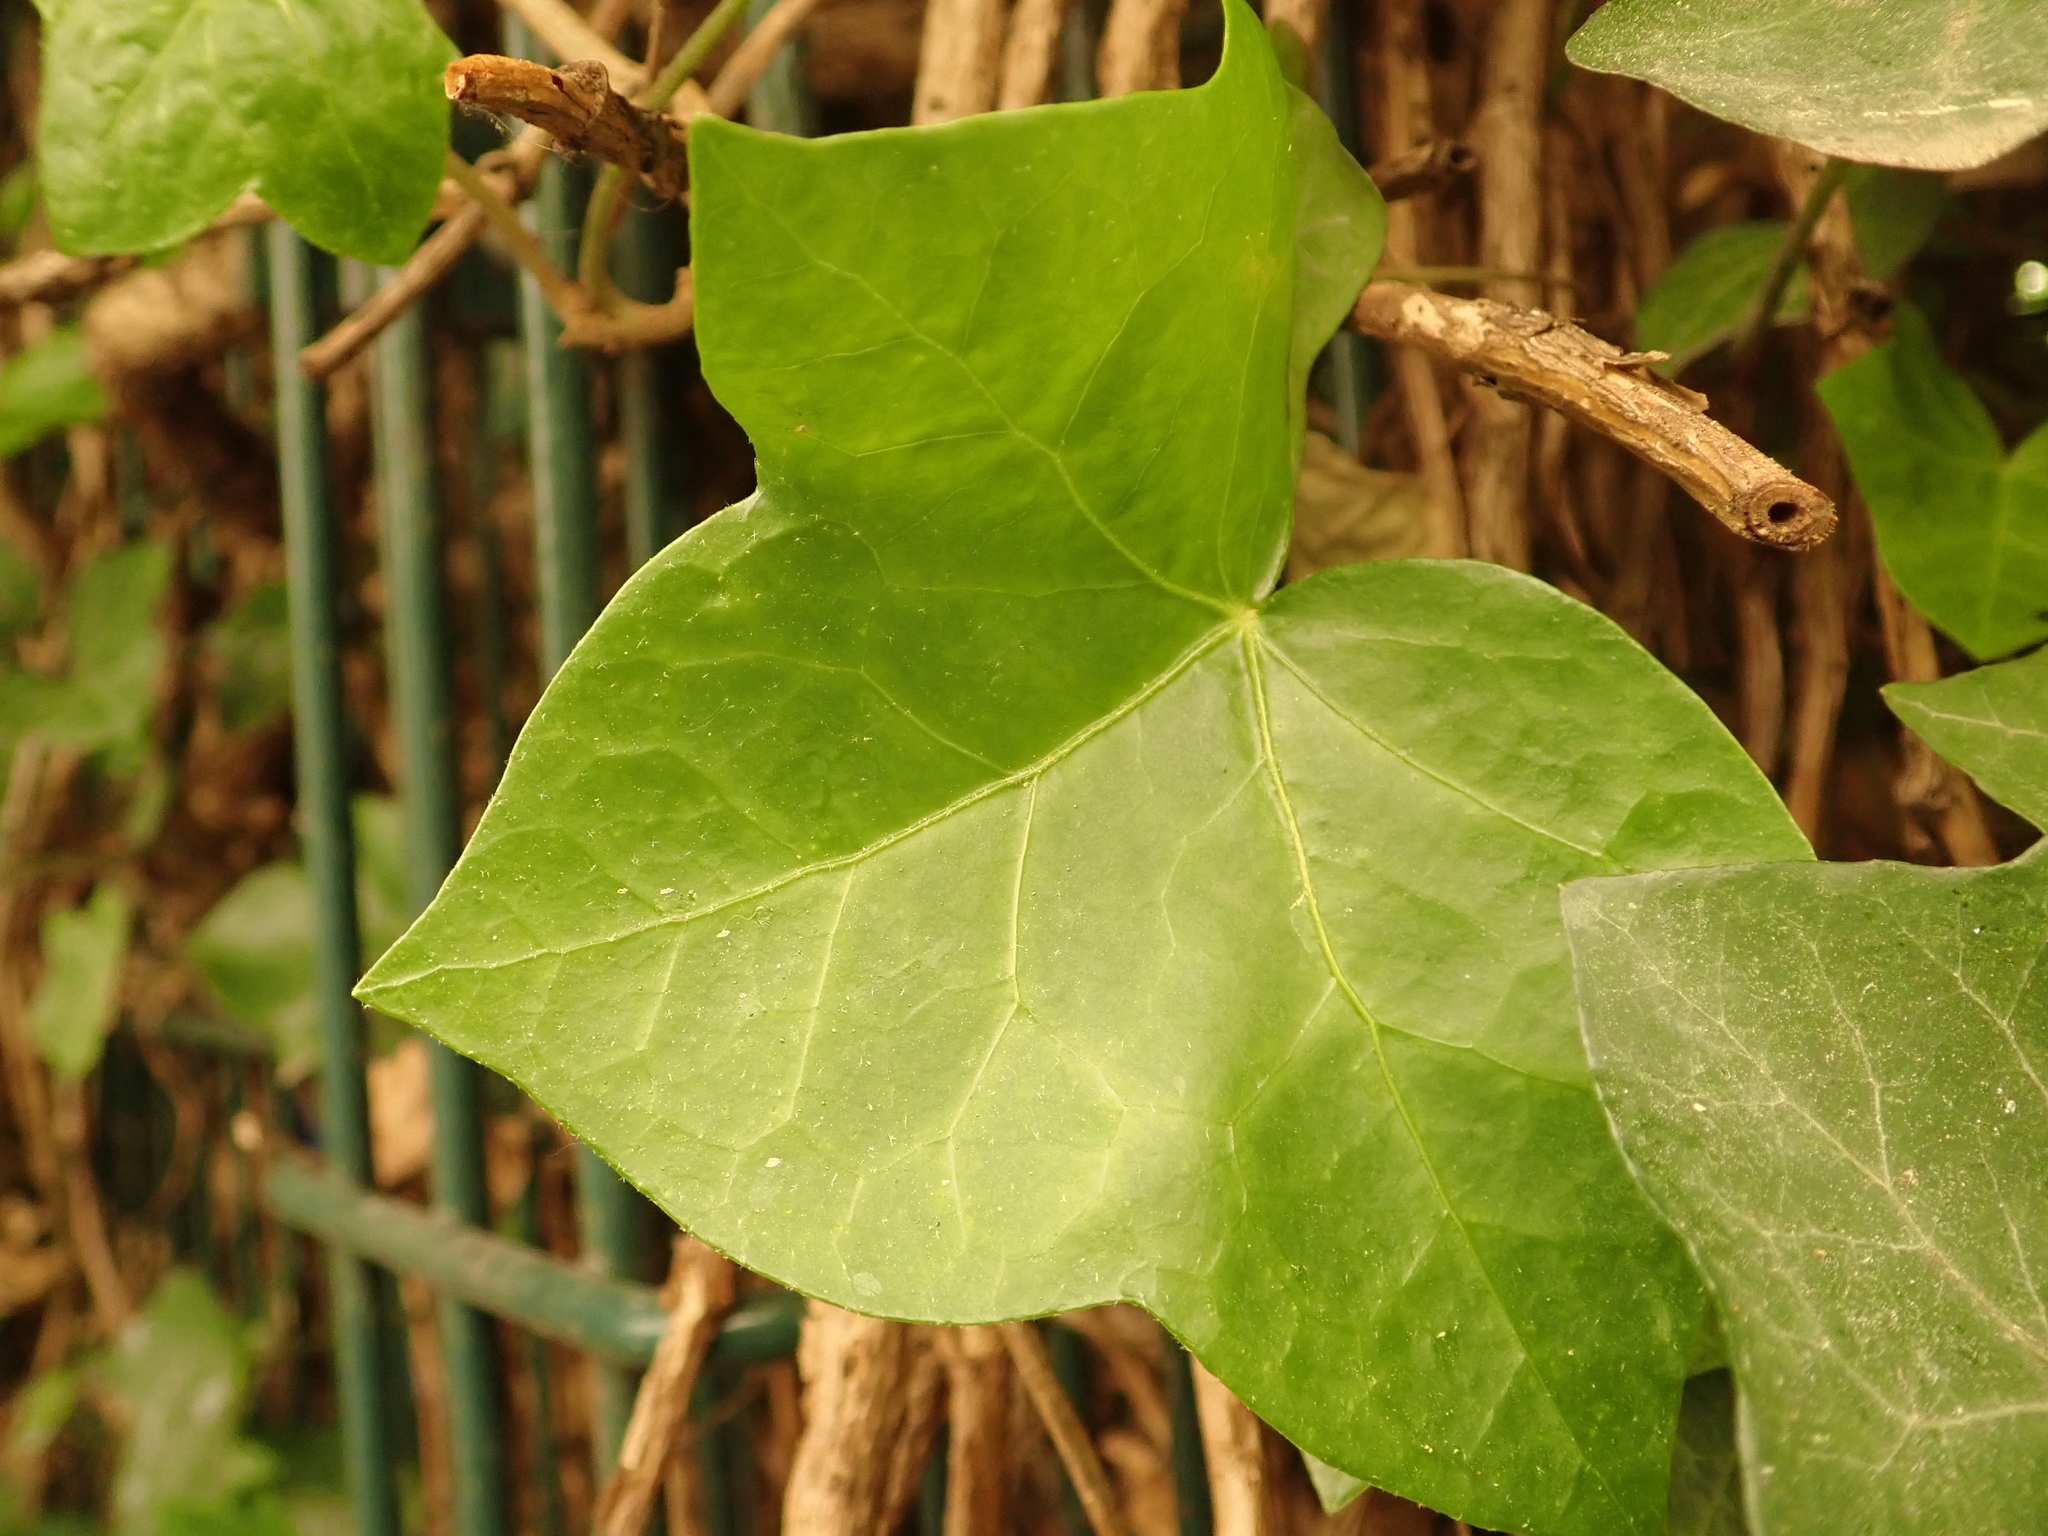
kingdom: Plantae
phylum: Tracheophyta
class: Magnoliopsida
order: Apiales
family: Araliaceae
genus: Hedera
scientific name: Hedera helix
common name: Ivy
